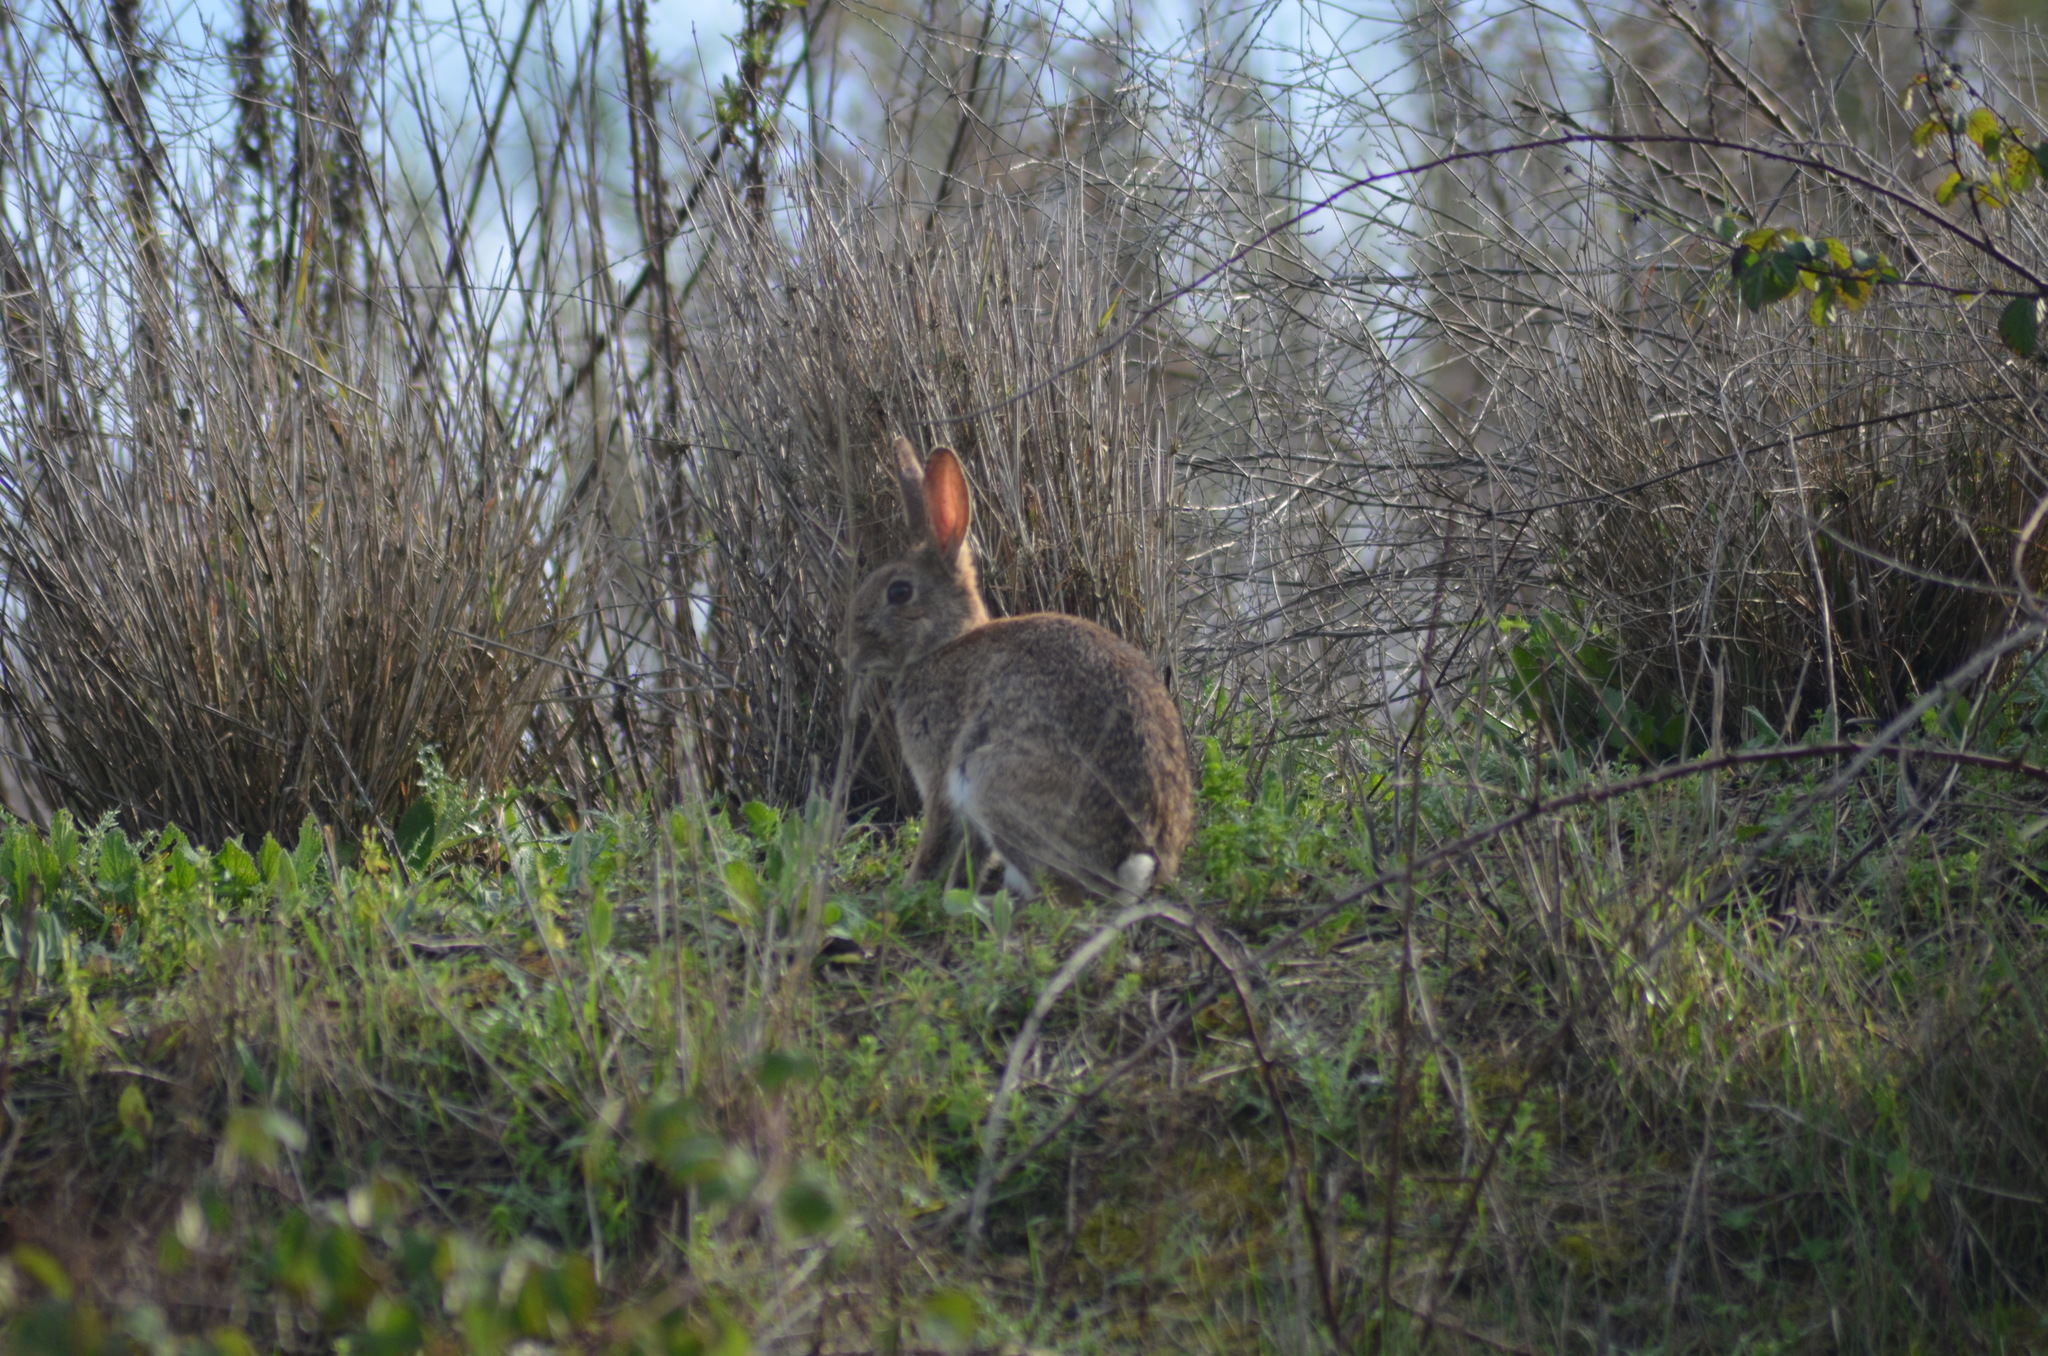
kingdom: Animalia
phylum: Chordata
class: Mammalia
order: Lagomorpha
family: Leporidae
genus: Oryctolagus
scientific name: Oryctolagus cuniculus
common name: European rabbit
